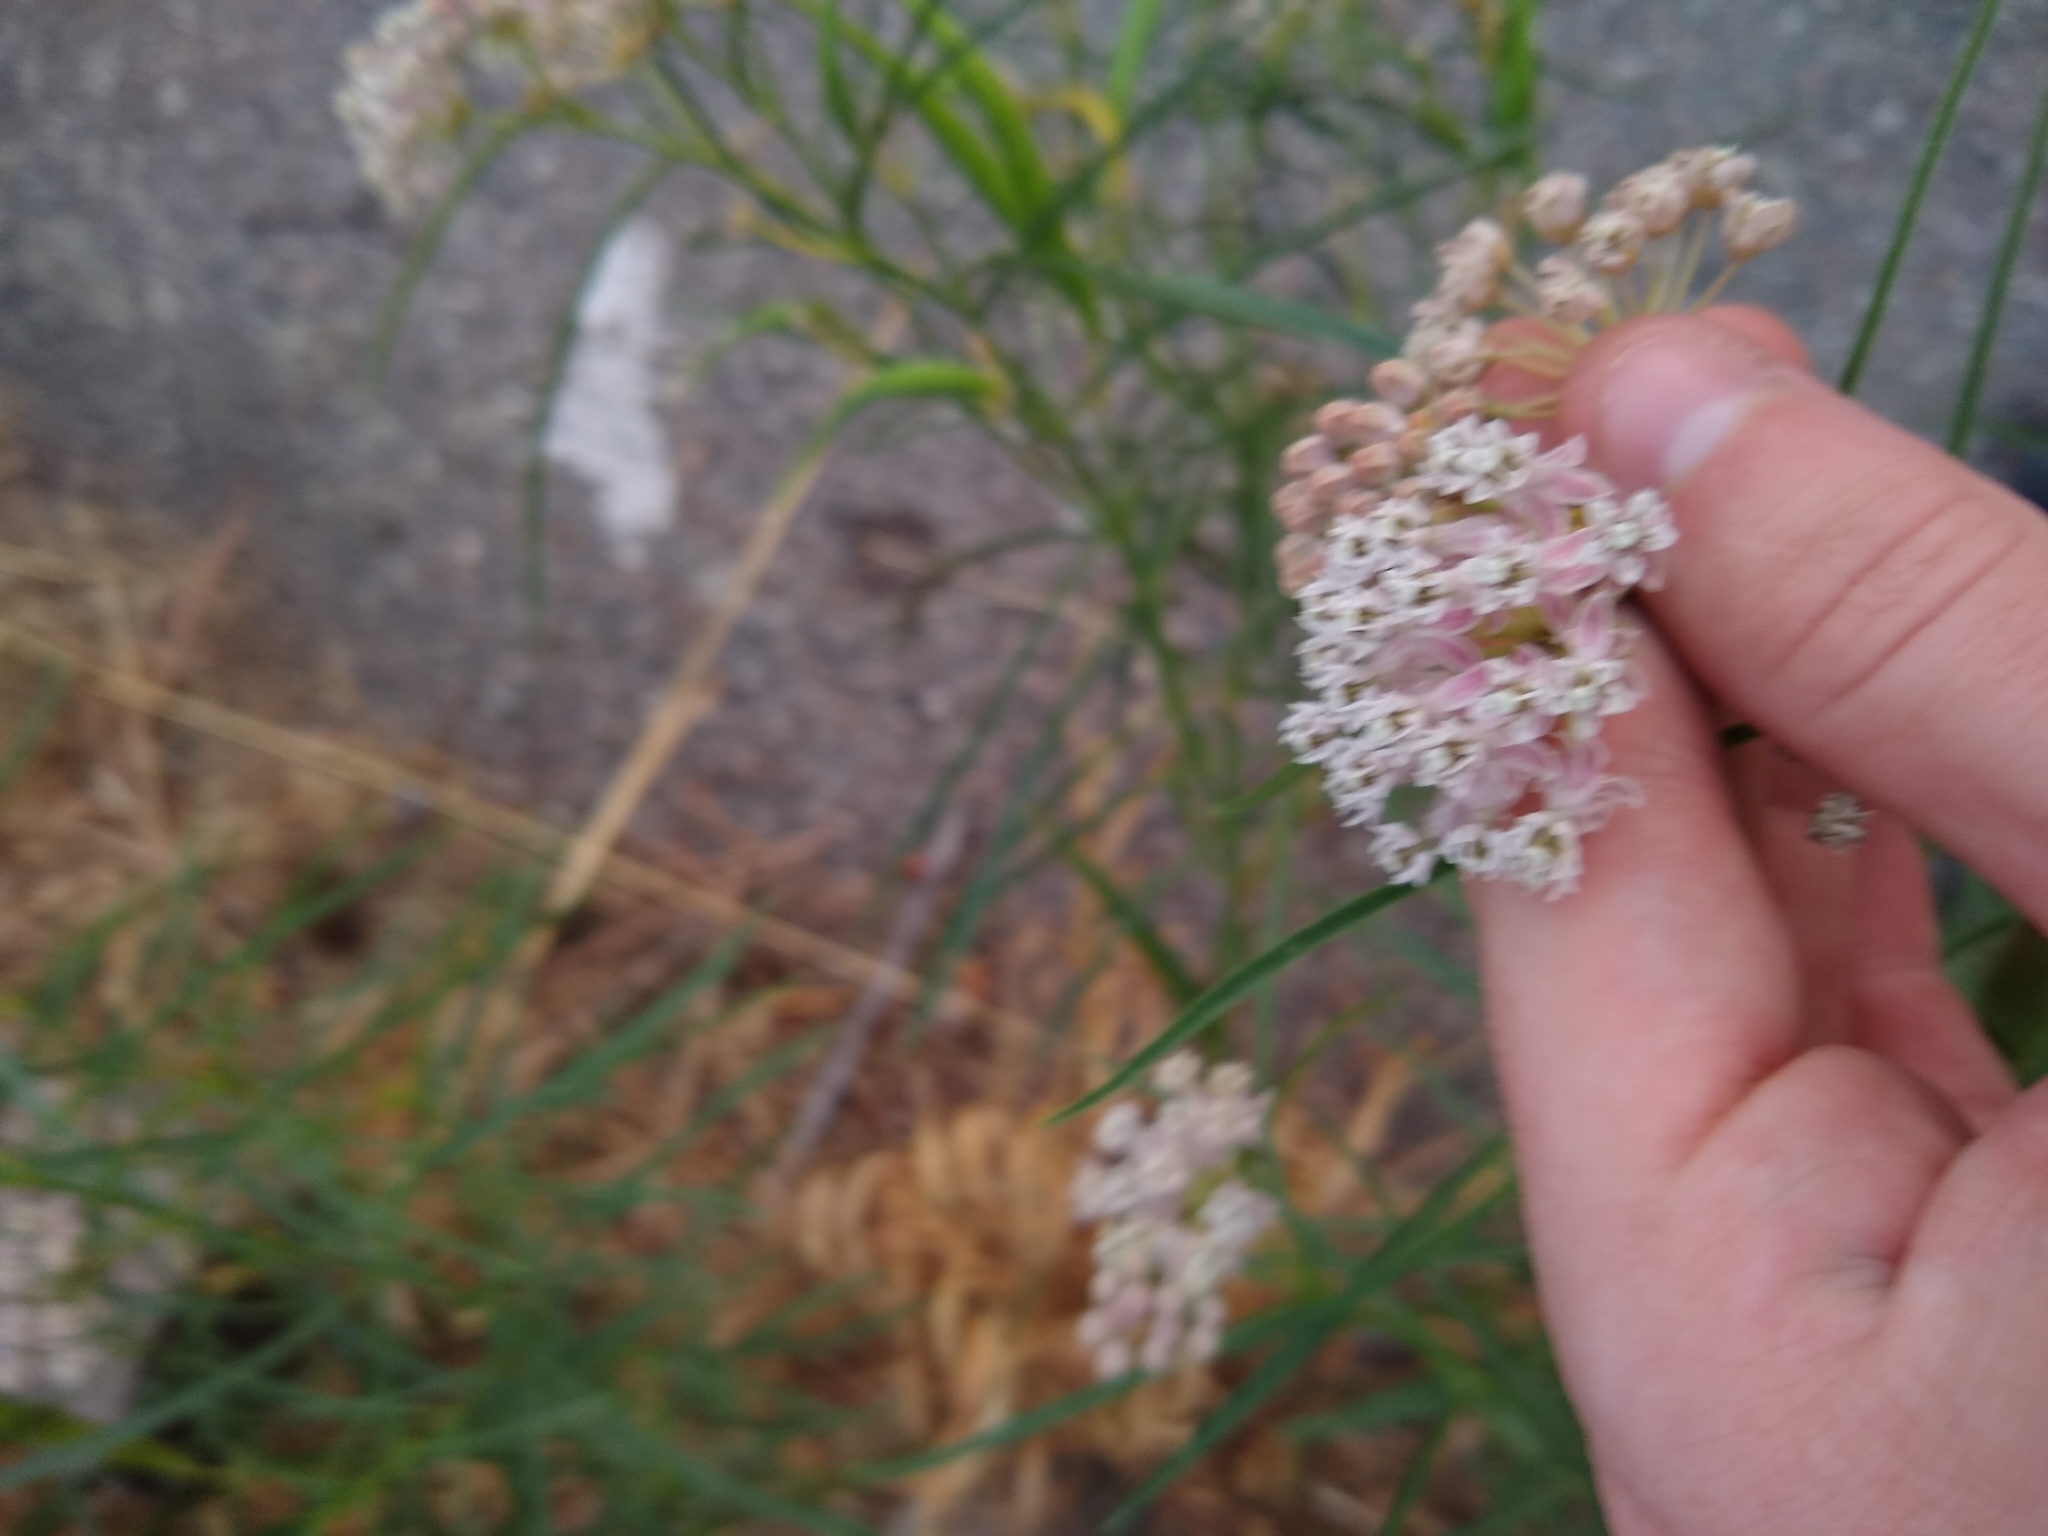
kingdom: Plantae
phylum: Tracheophyta
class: Magnoliopsida
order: Gentianales
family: Apocynaceae
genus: Asclepias
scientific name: Asclepias fascicularis
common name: Mexican milkweed
